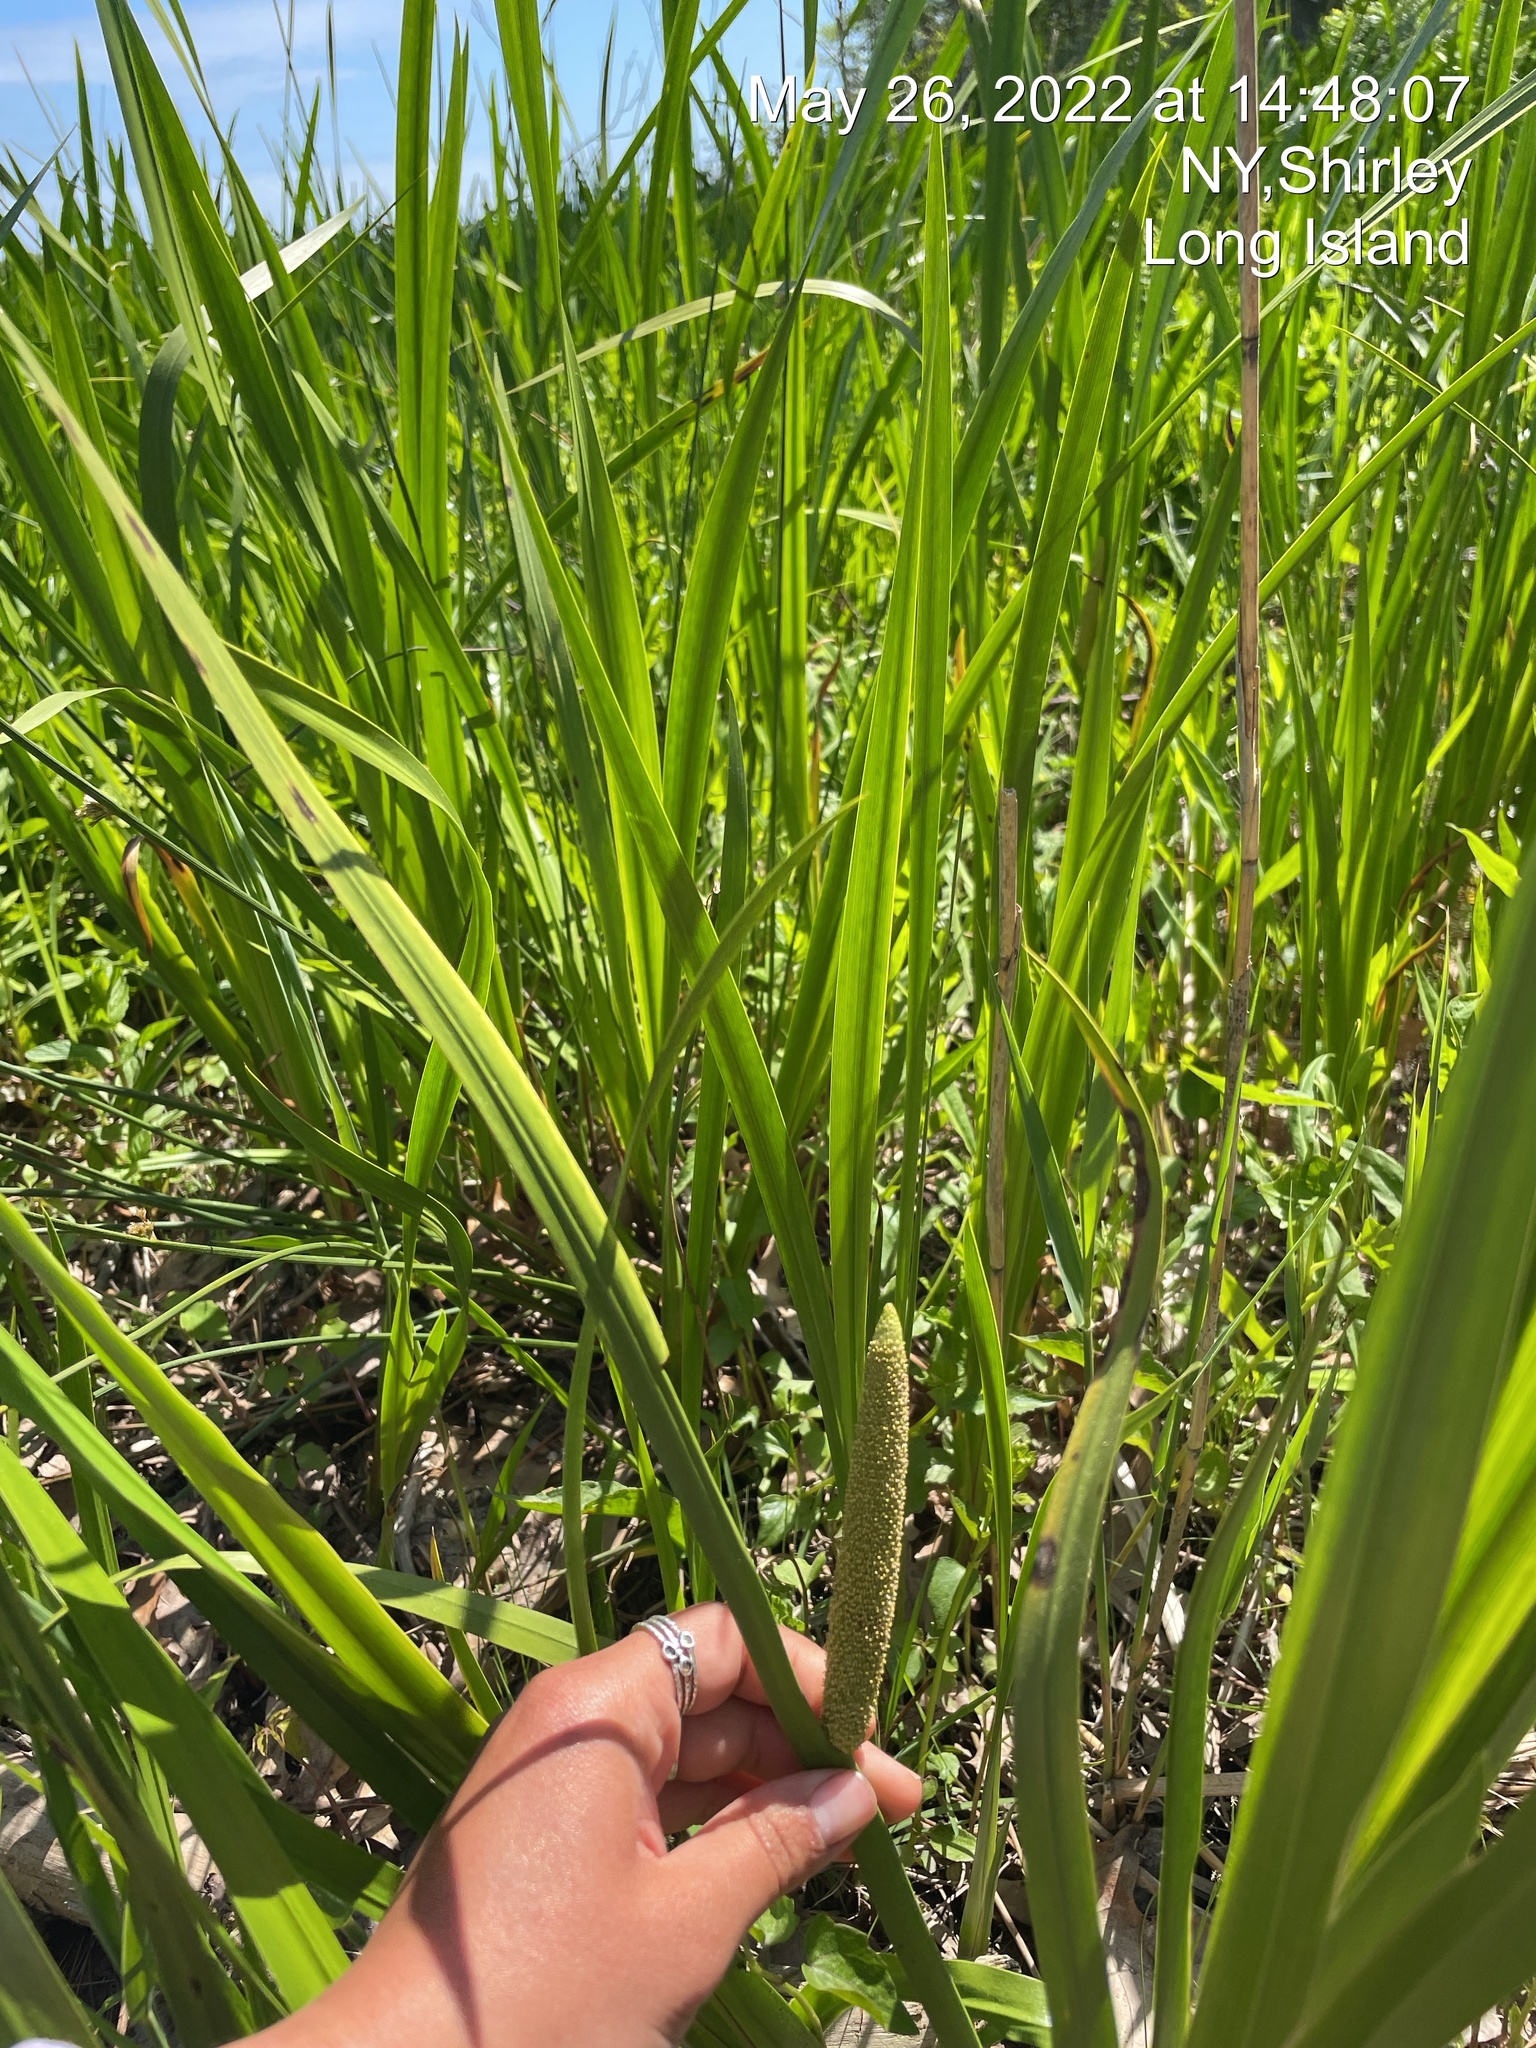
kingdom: Plantae
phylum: Tracheophyta
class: Liliopsida
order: Acorales
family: Acoraceae
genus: Acorus
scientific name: Acorus calamus
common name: Sweet-flag
